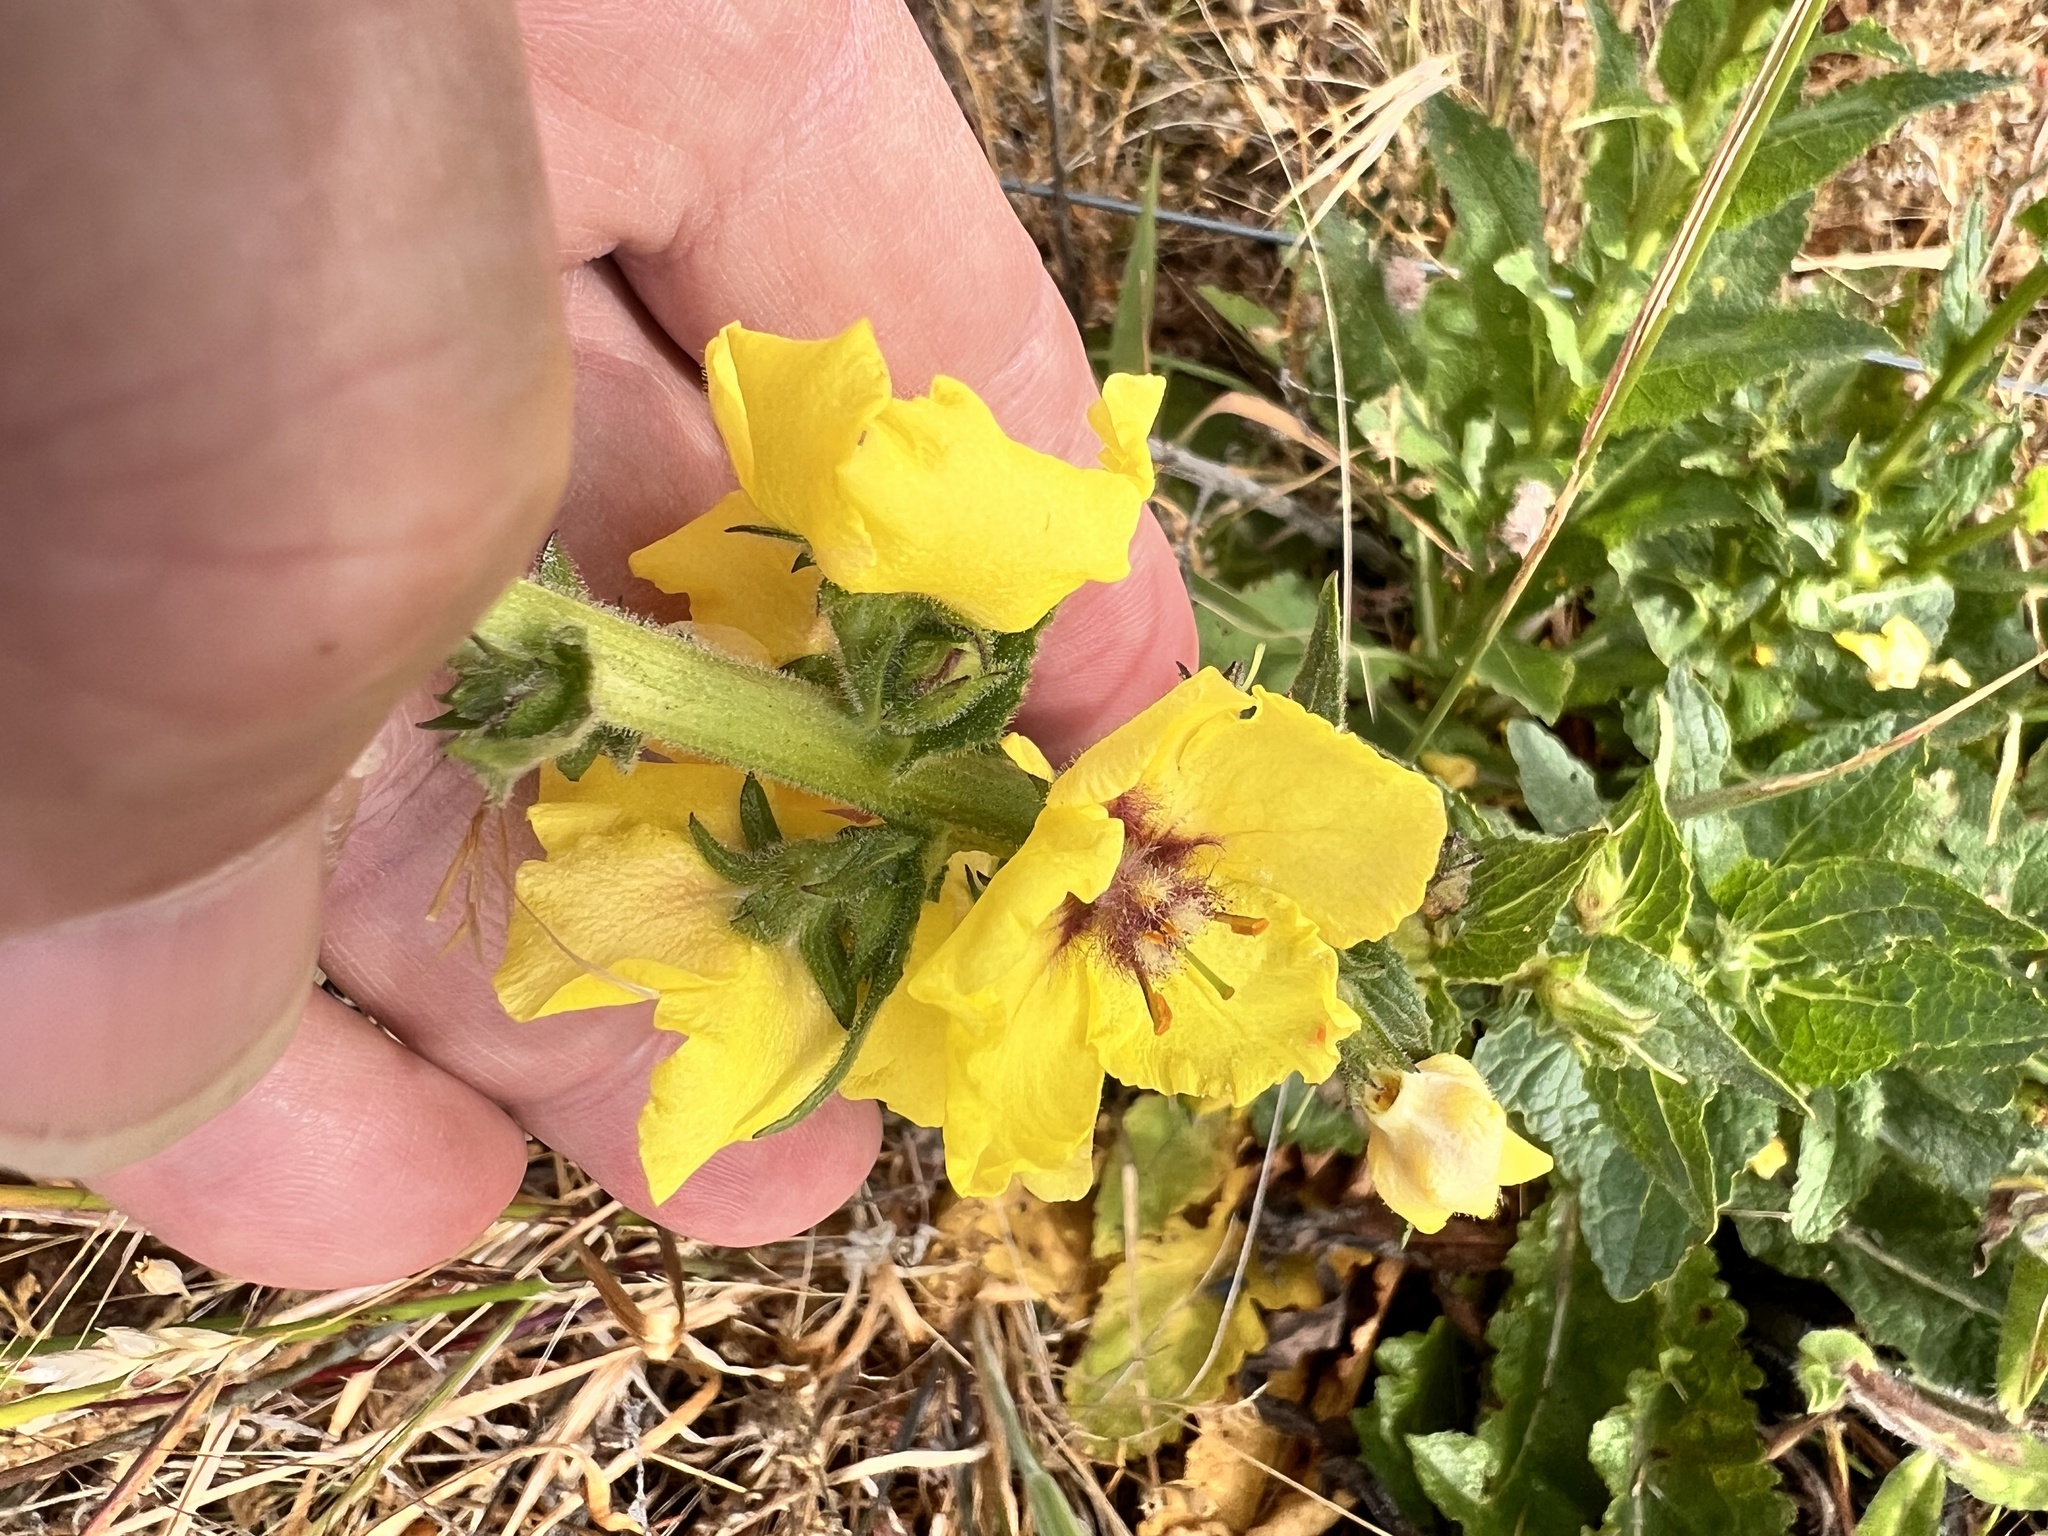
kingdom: Plantae
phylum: Tracheophyta
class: Magnoliopsida
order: Lamiales
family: Scrophulariaceae
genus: Verbascum
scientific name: Verbascum virgatum
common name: Twiggy mullein
